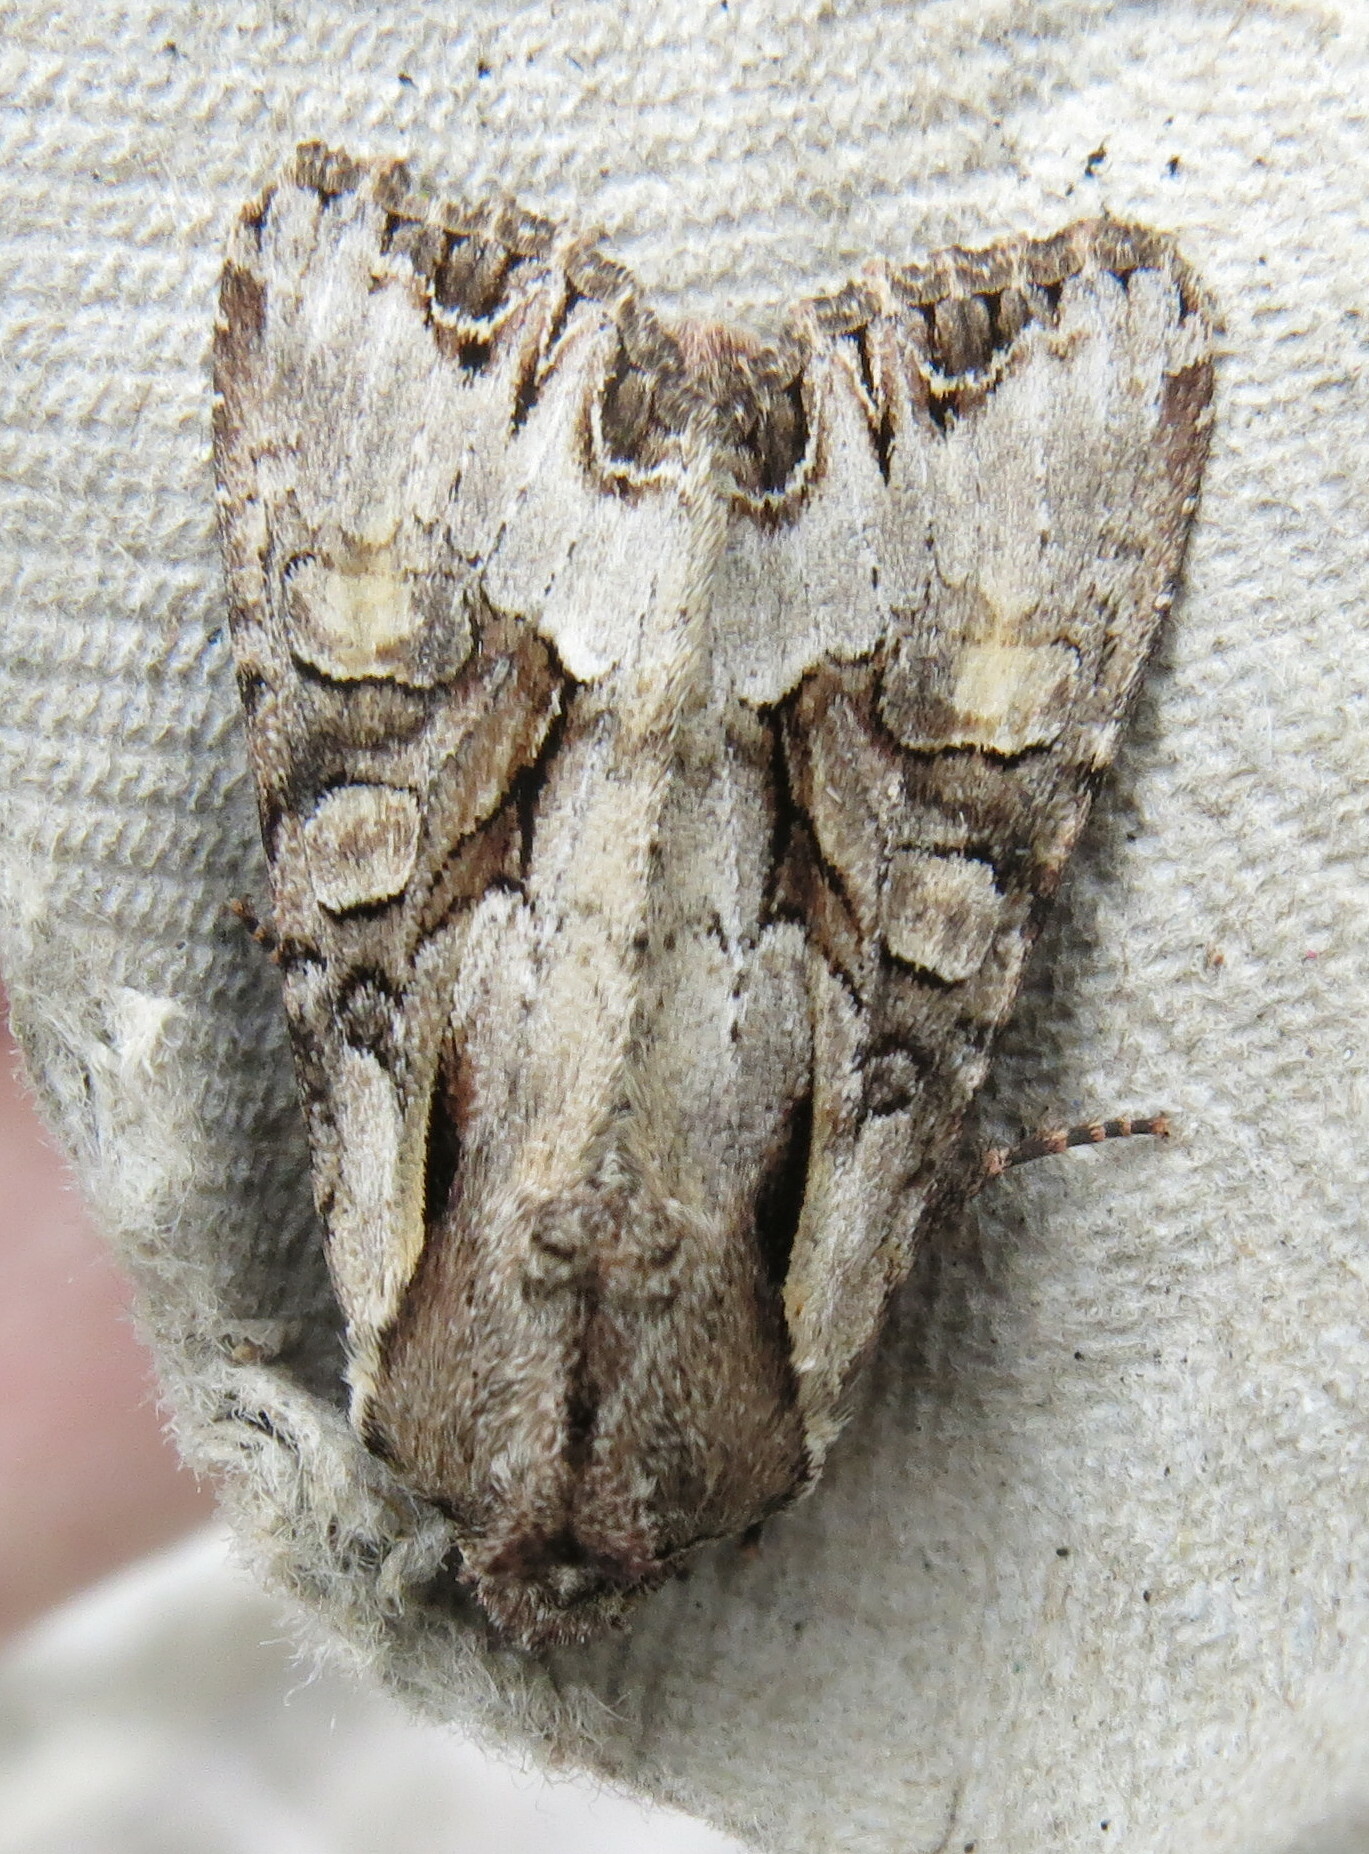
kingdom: Animalia
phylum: Arthropoda
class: Insecta
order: Lepidoptera
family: Noctuidae
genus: Lacanobia
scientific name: Lacanobia w-latinum
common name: Light brocade
